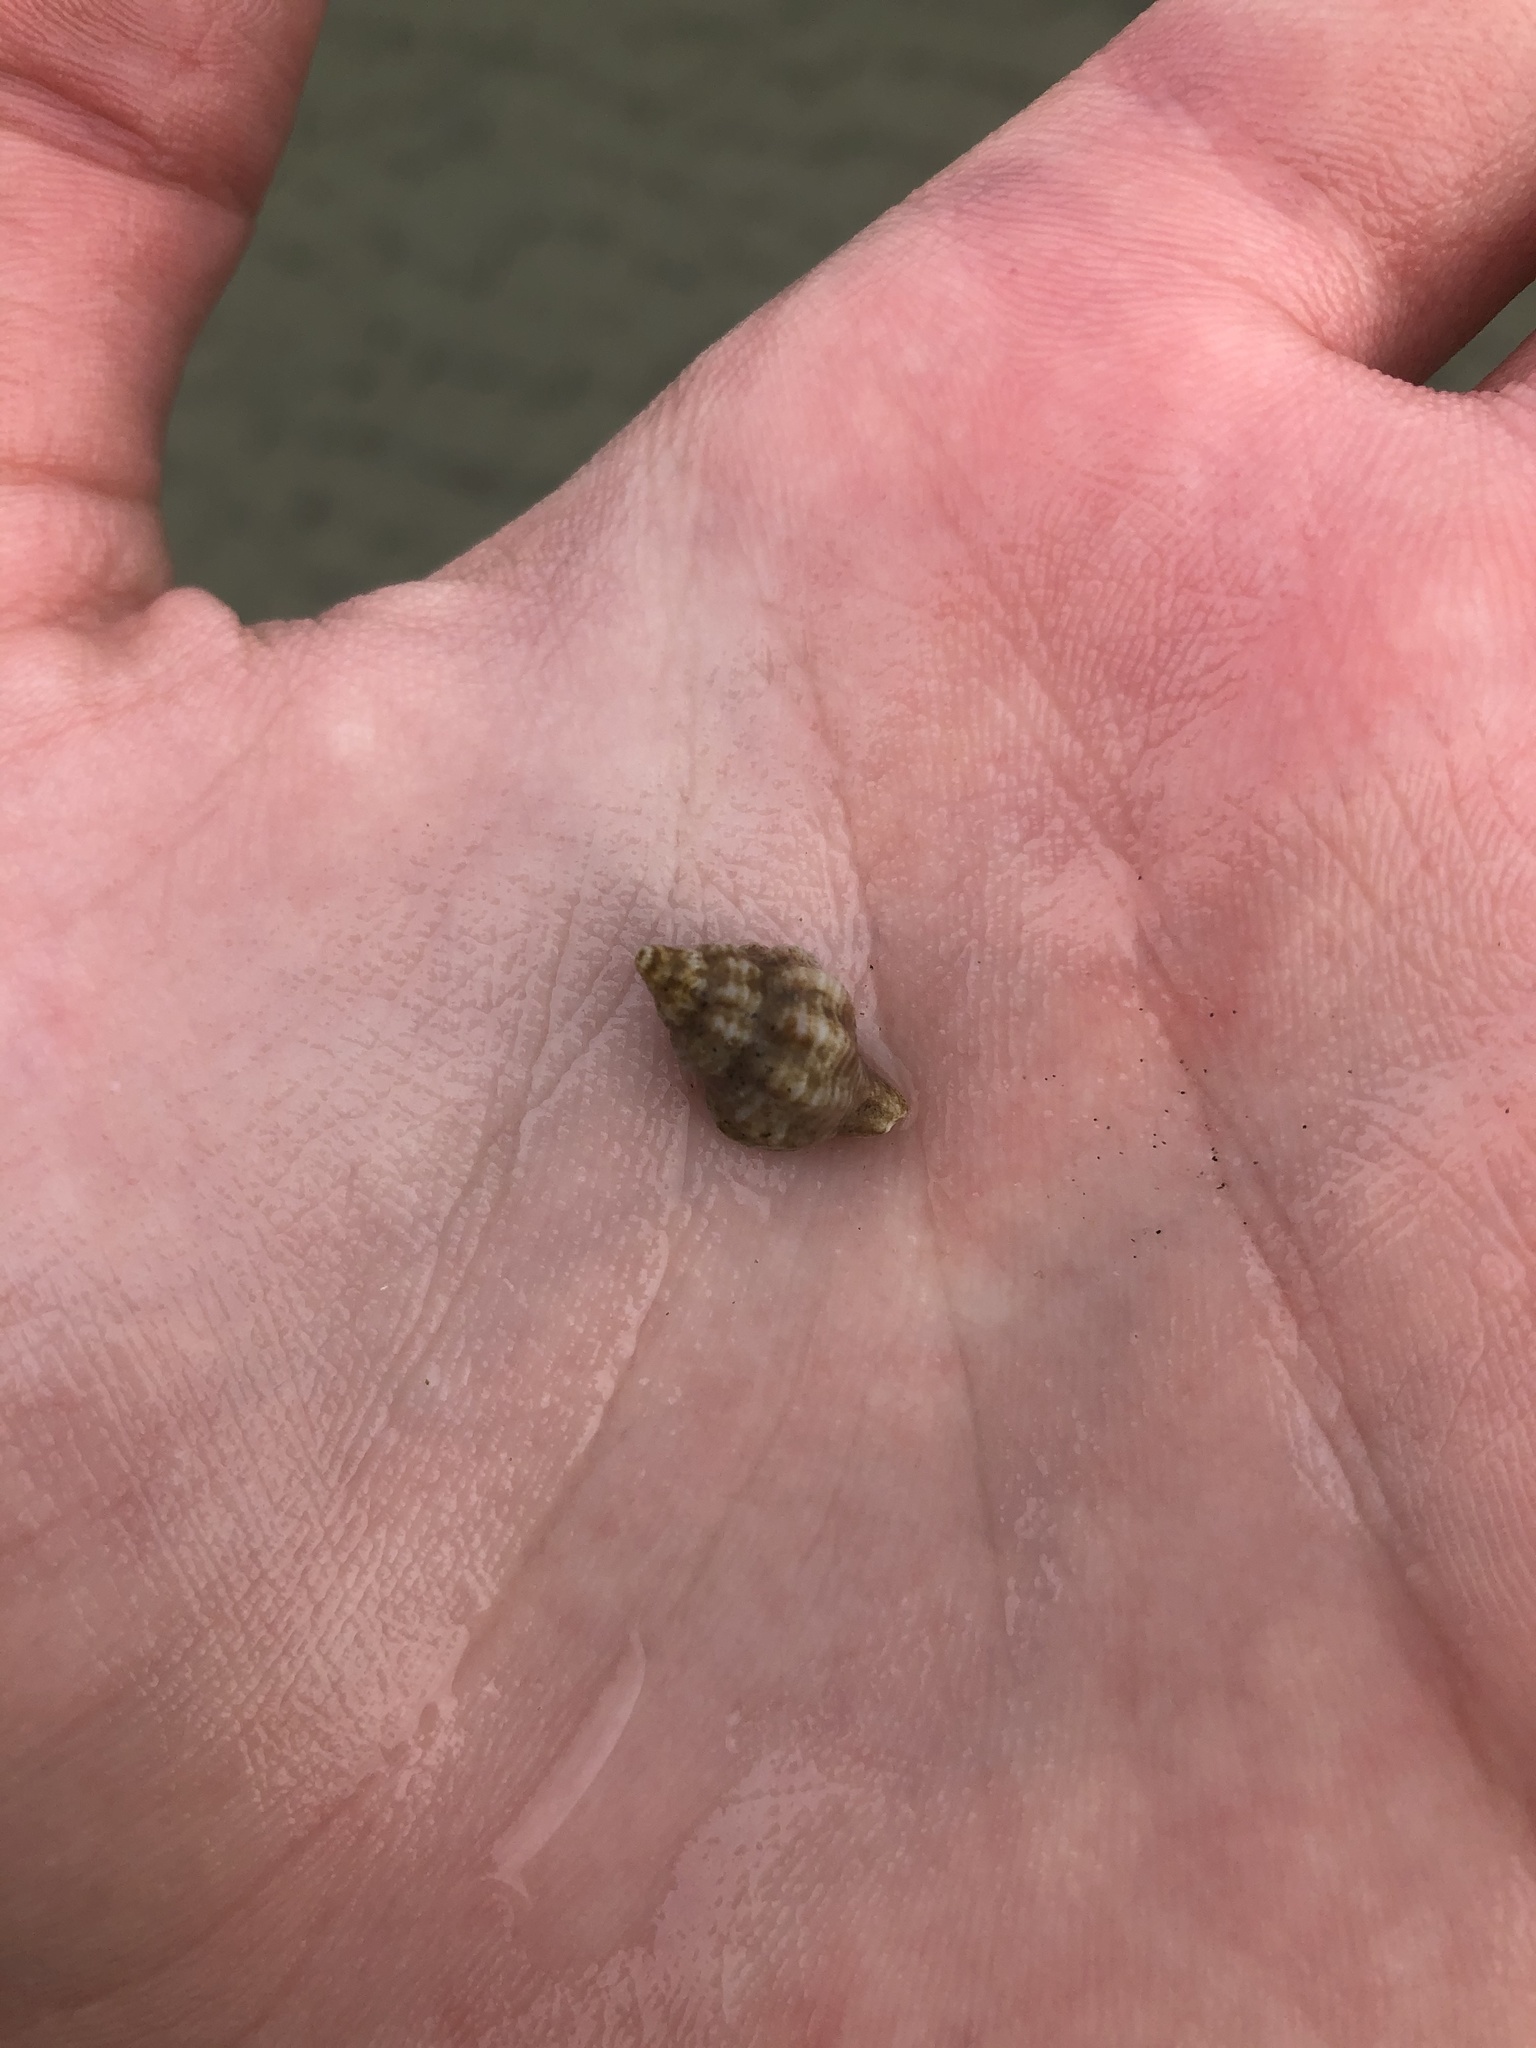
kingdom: Animalia
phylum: Mollusca
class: Gastropoda
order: Neogastropoda
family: Muricidae
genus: Urosalpinx
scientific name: Urosalpinx cinerea
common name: American sting winkle
